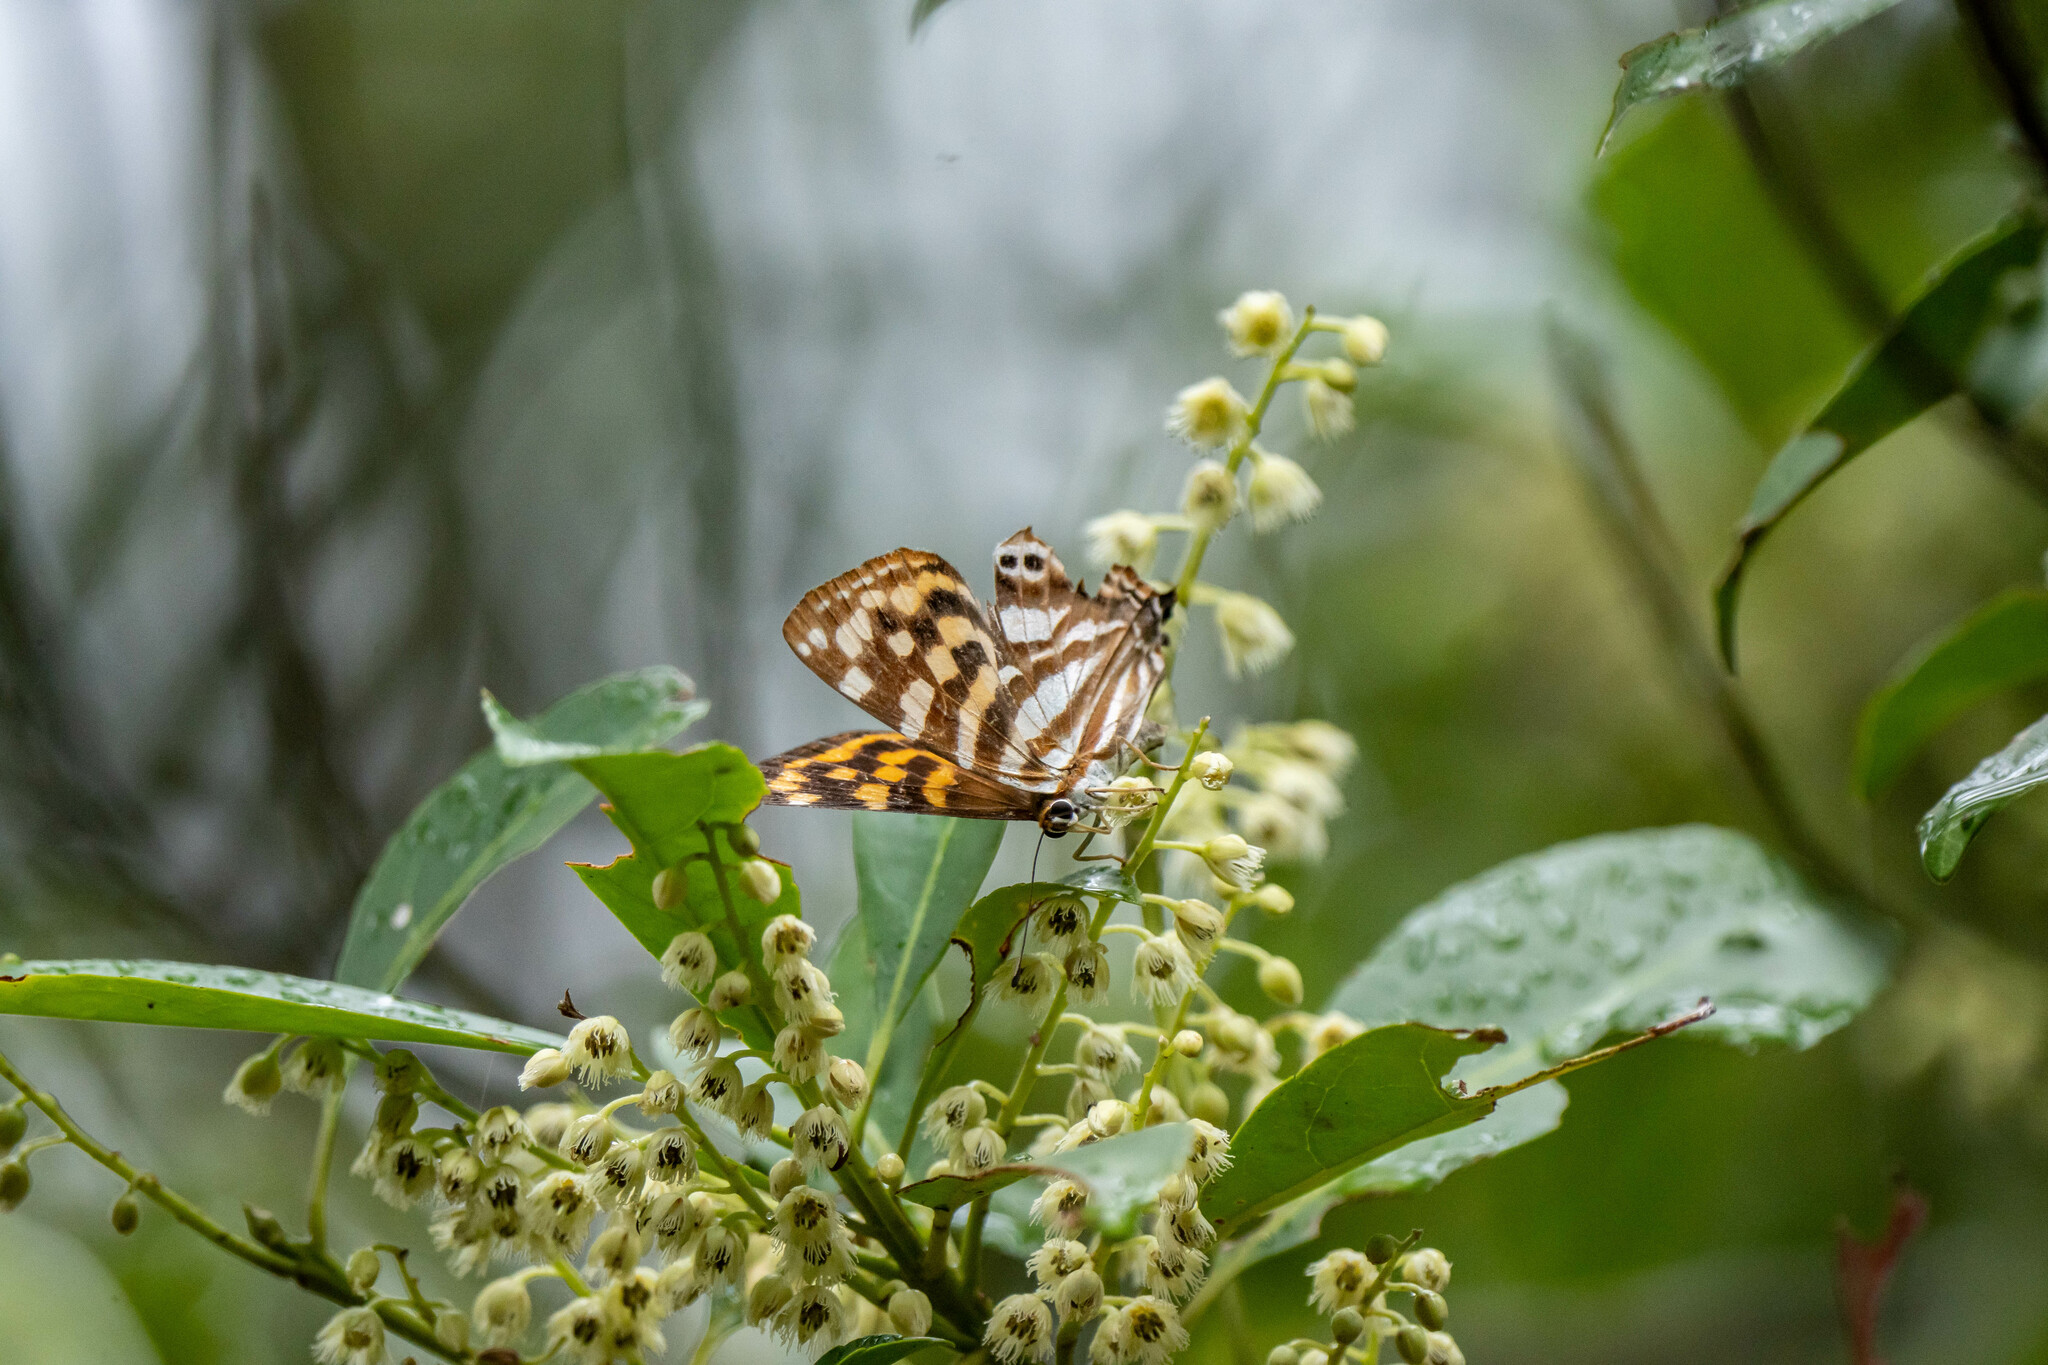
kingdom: Animalia
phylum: Arthropoda
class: Insecta
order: Lepidoptera
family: Lycaenidae
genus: Dodona
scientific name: Dodona egeon
